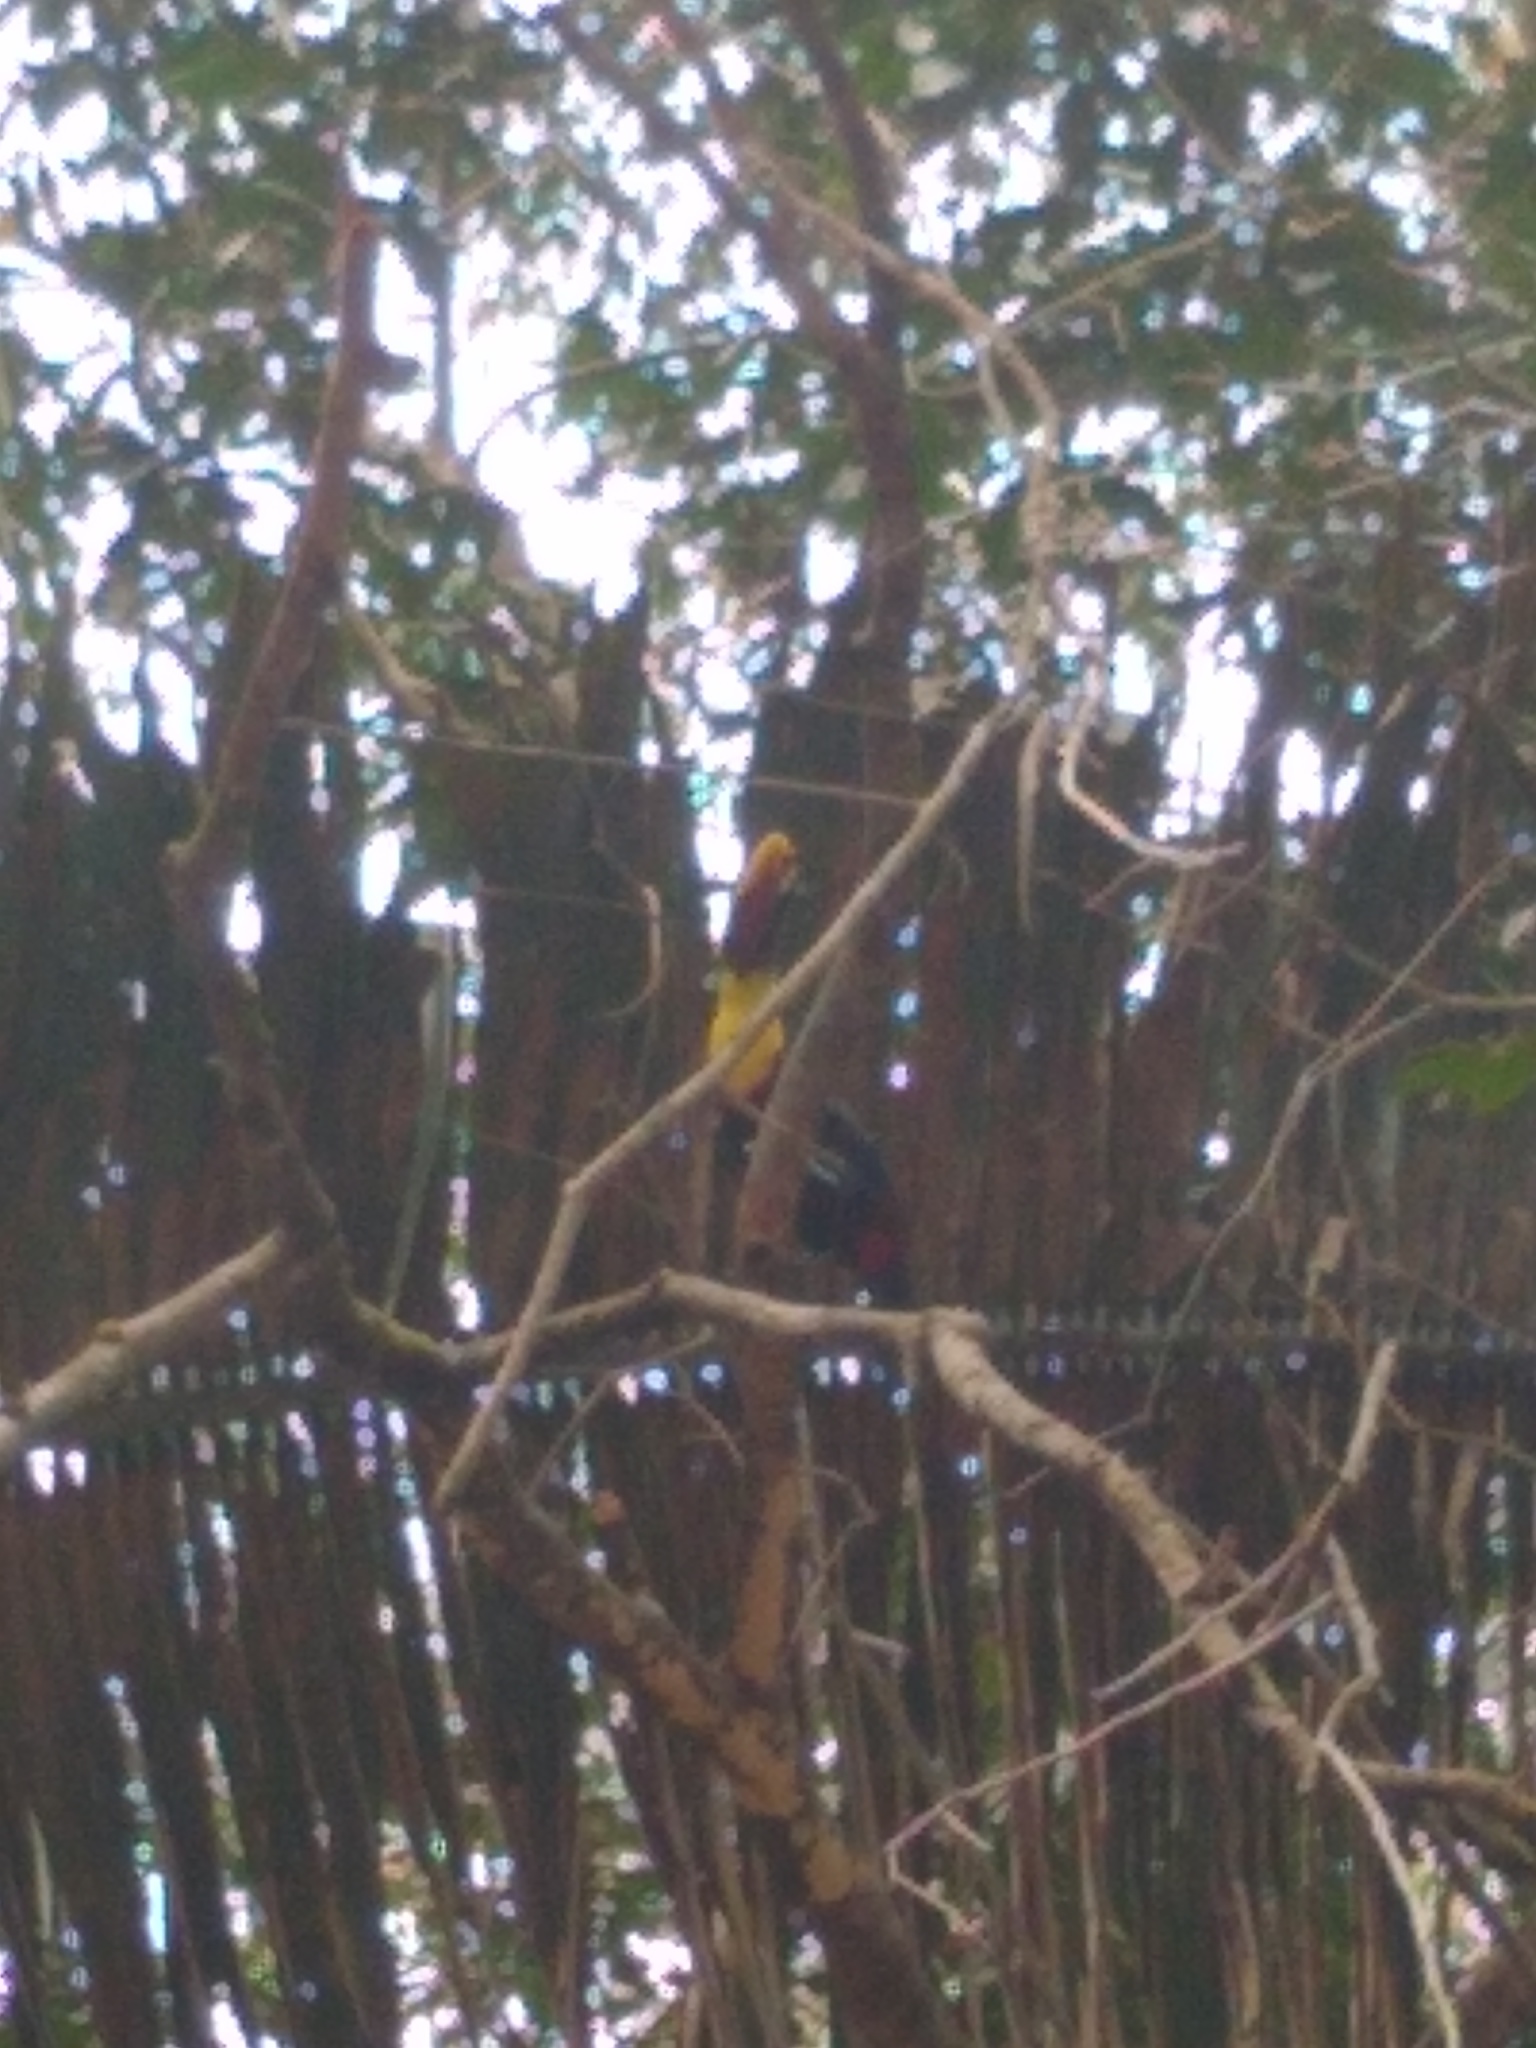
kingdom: Animalia
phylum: Chordata
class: Aves
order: Piciformes
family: Ramphastidae
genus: Ramphastos
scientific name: Ramphastos ambiguus
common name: Yellow-throated toucan
